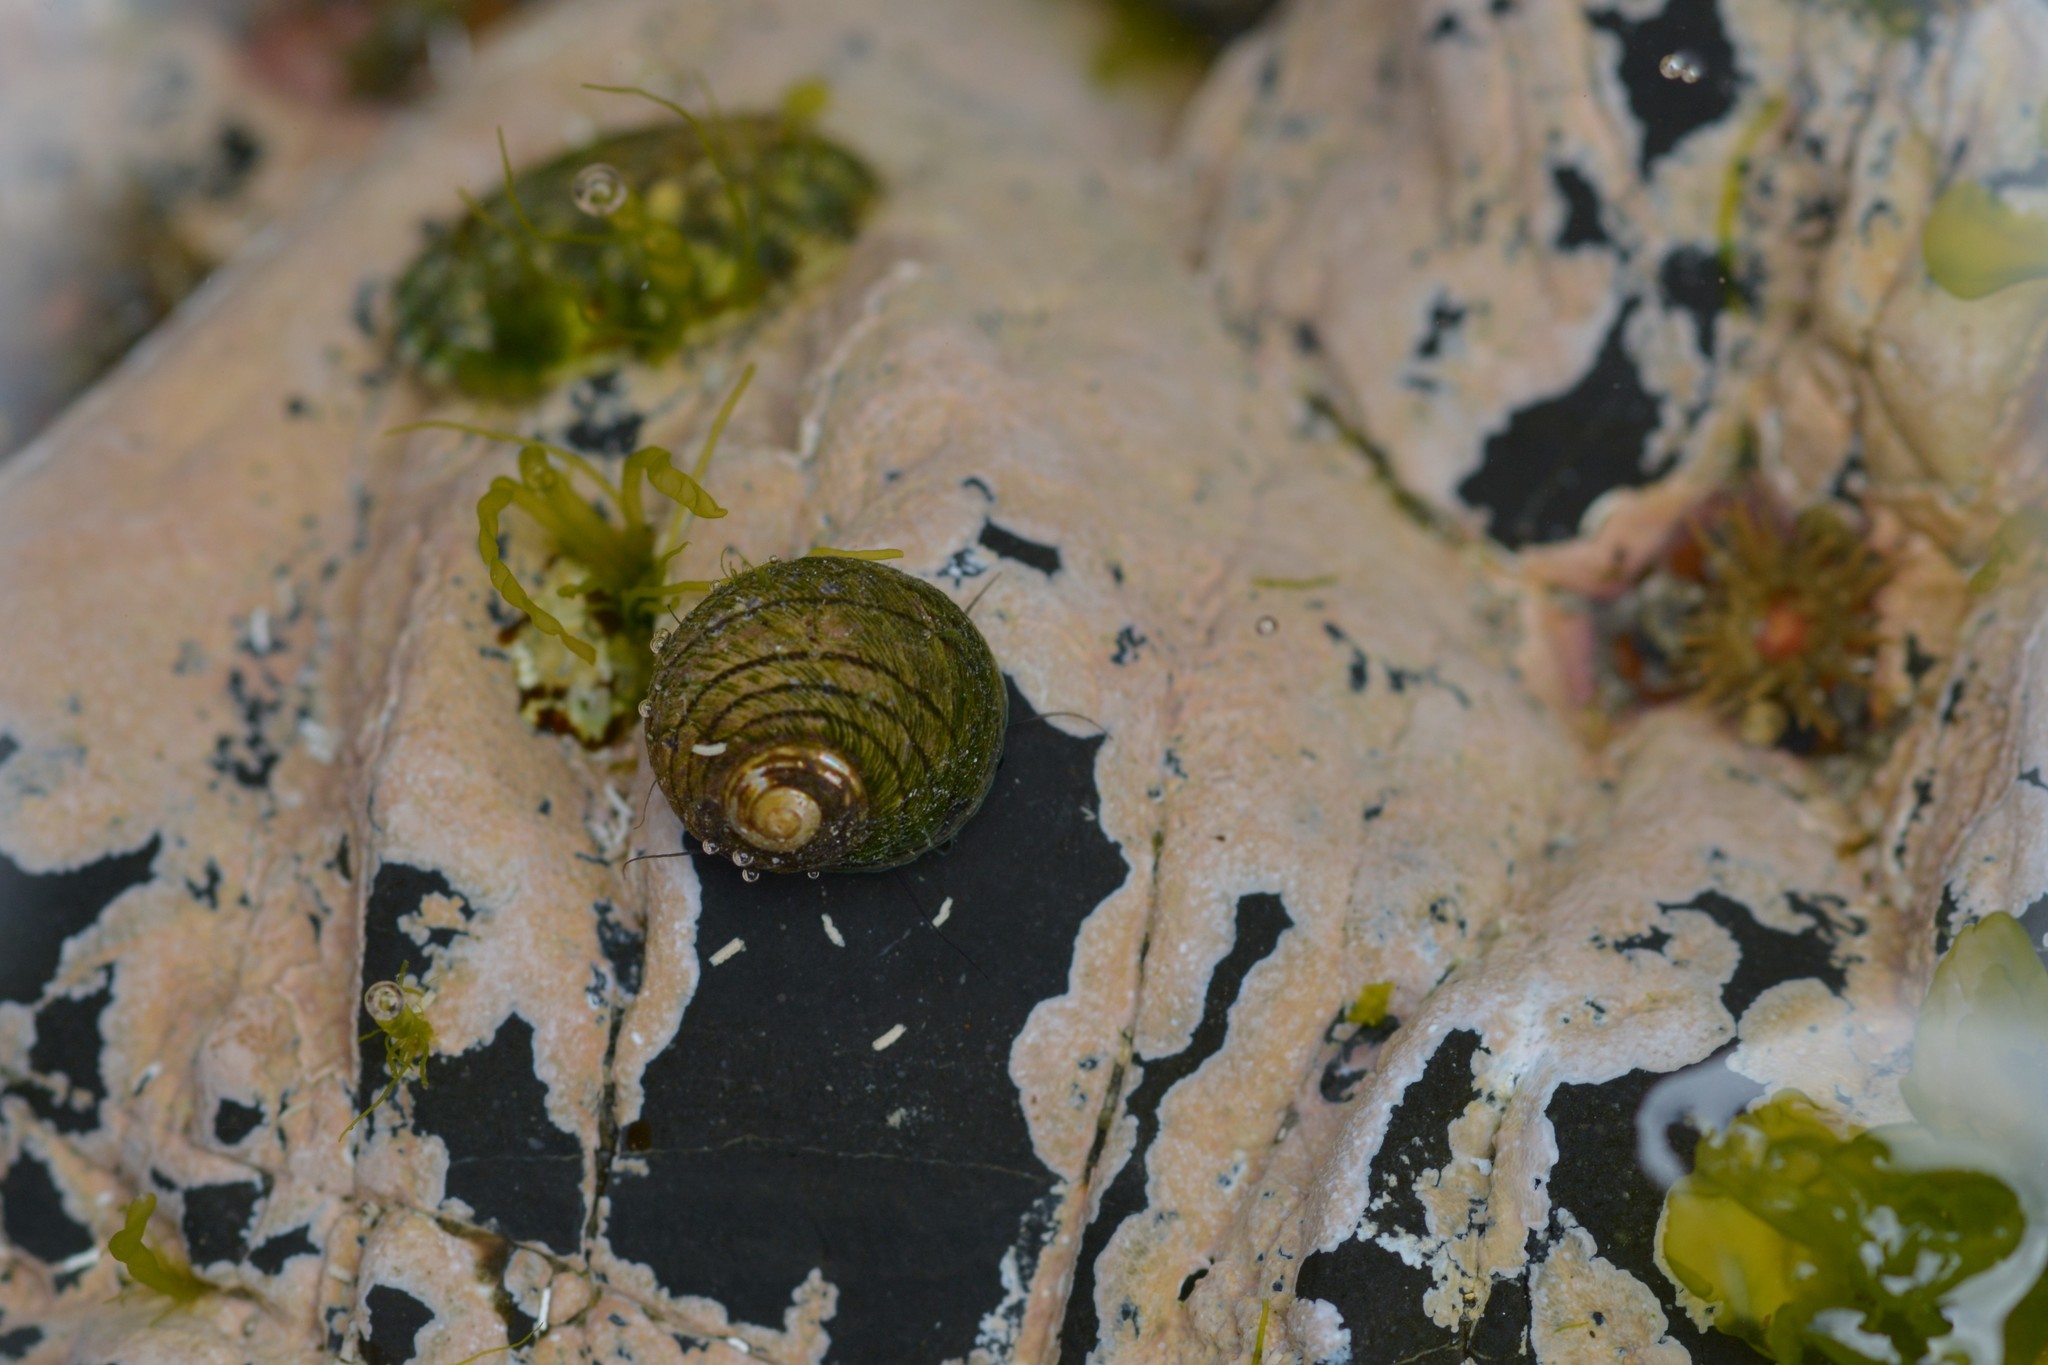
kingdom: Animalia
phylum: Mollusca
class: Gastropoda
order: Trochida
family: Trochidae
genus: Diloma
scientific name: Diloma aethiops
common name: Scorched monodont
